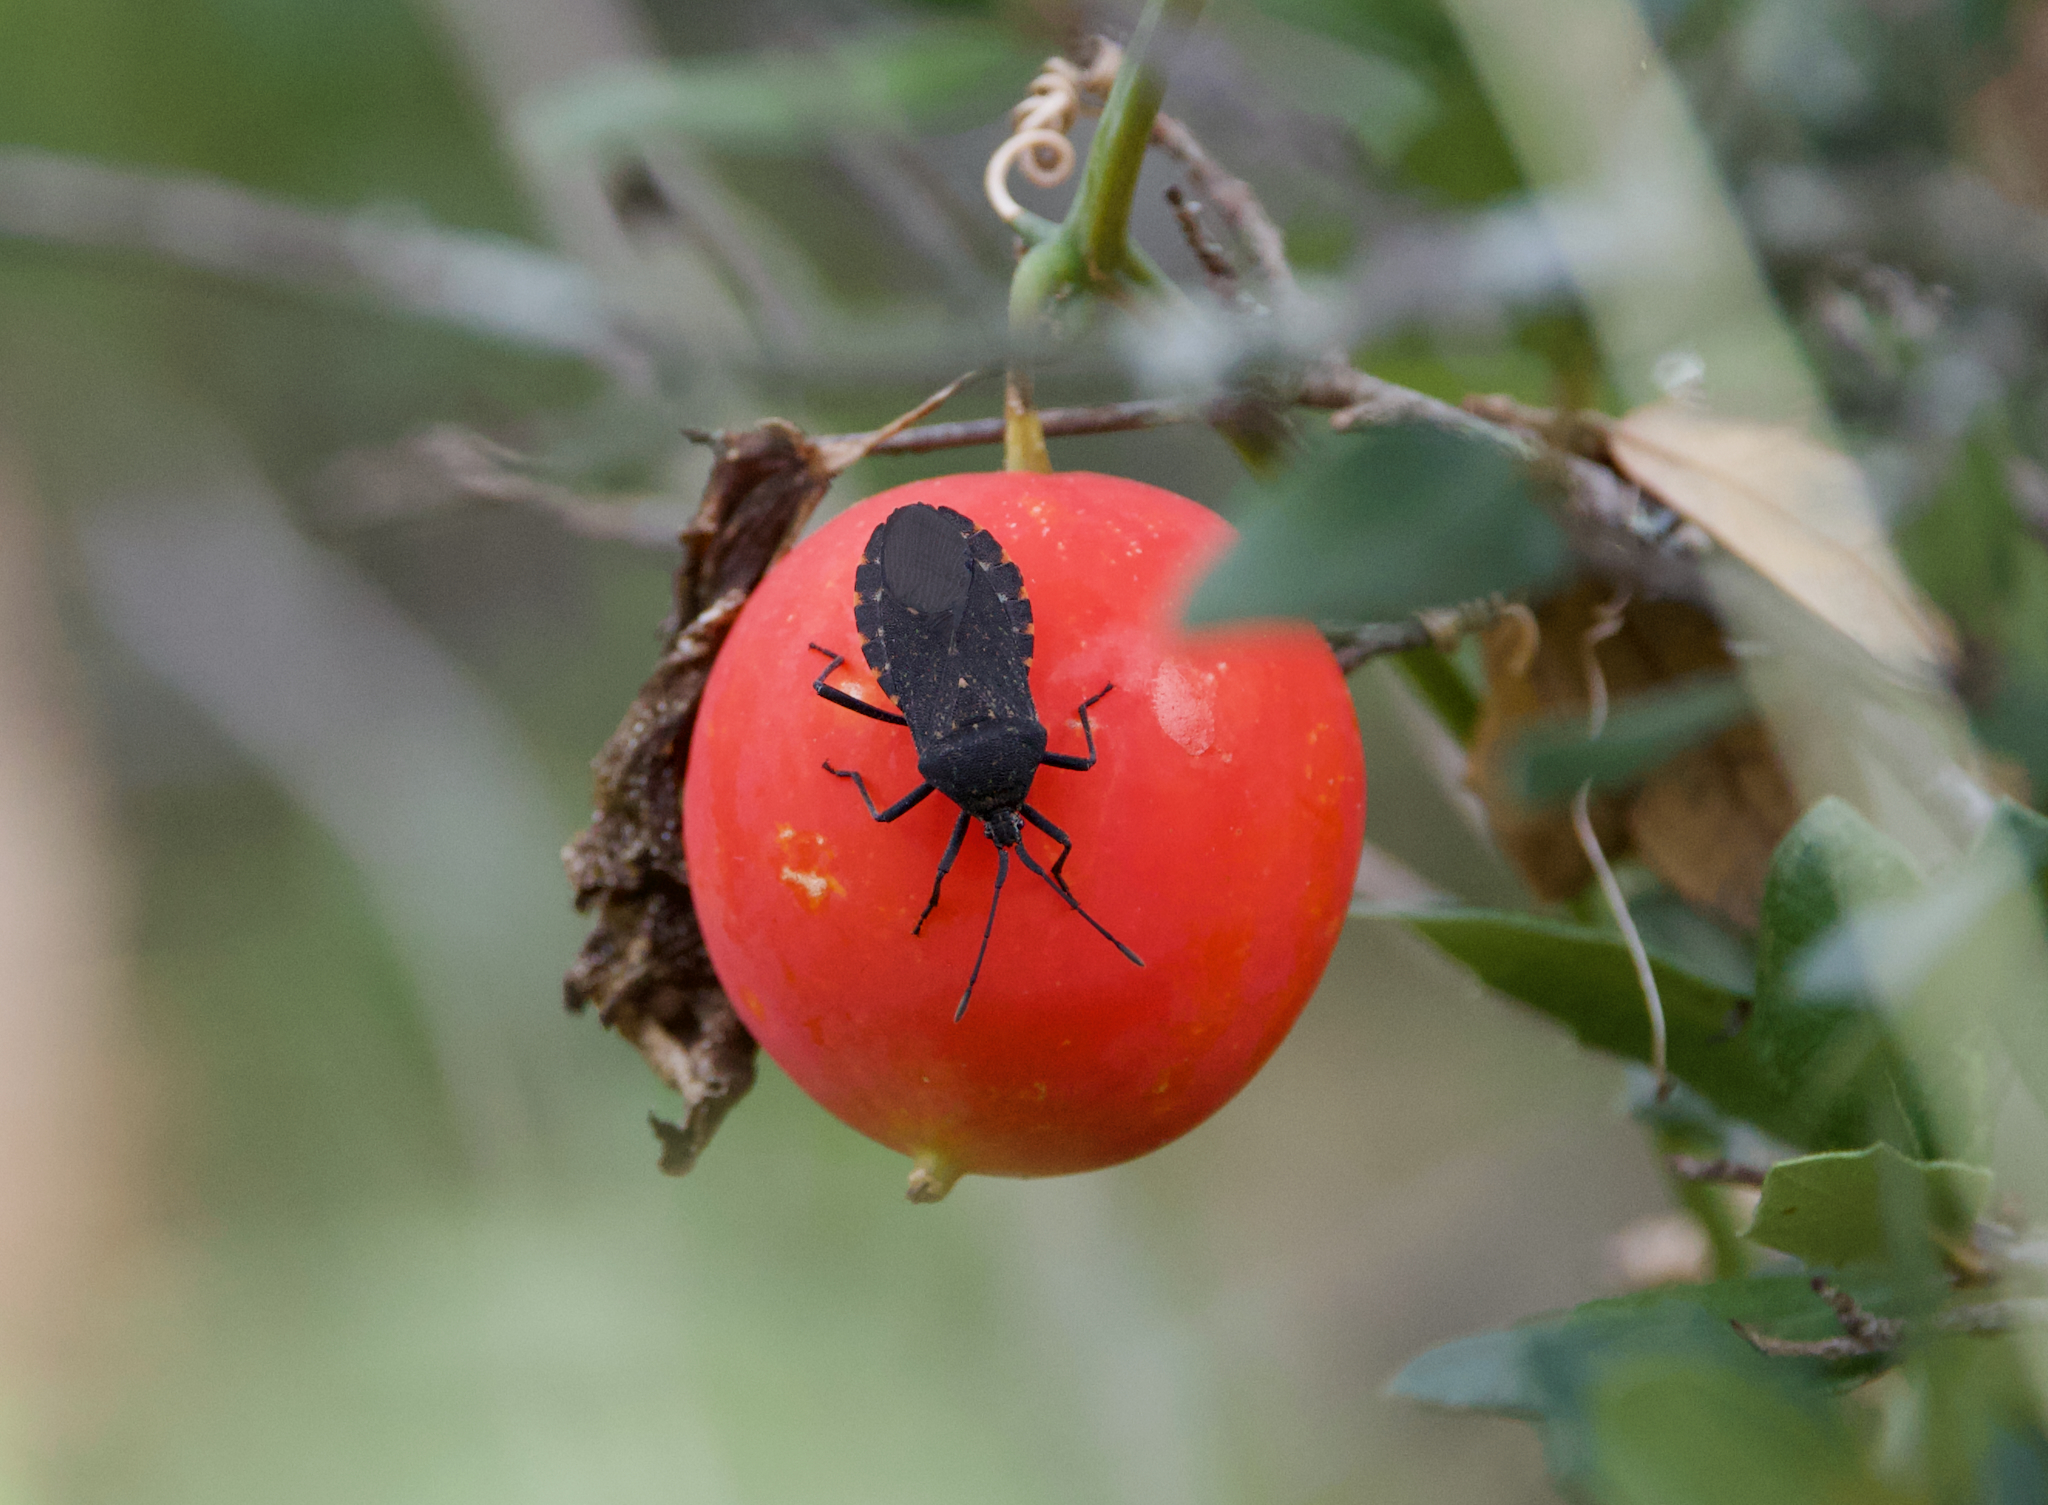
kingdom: Animalia
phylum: Arthropoda
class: Insecta
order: Hemiptera
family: Coreidae
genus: Anasa
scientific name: Anasa tristis
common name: Squash bug
